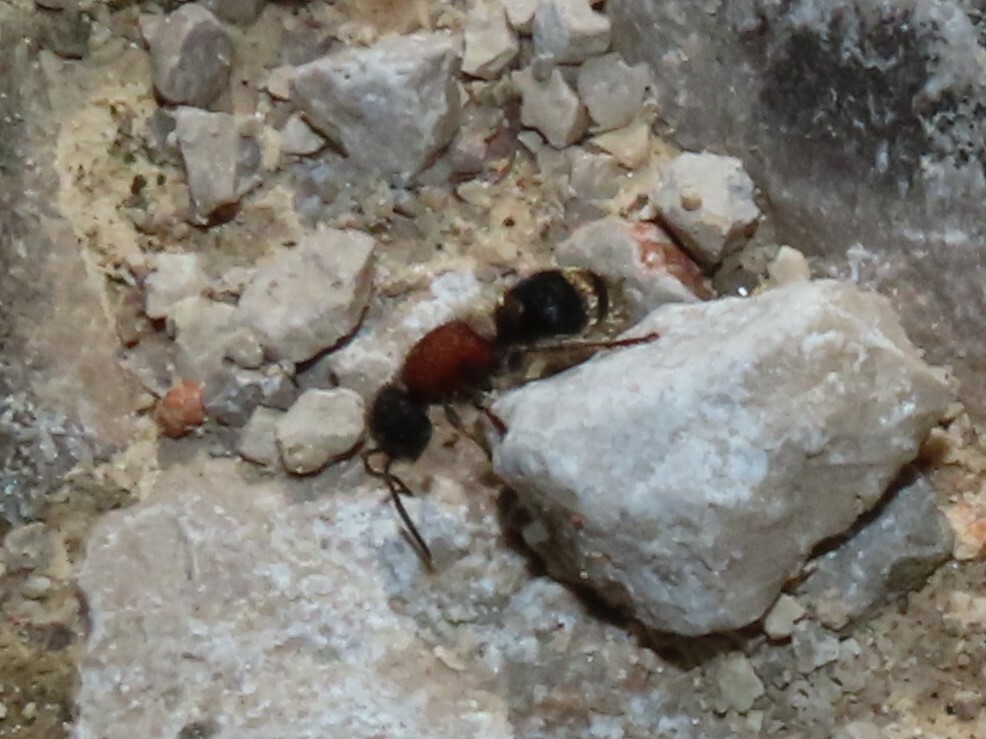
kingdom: Animalia
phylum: Arthropoda
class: Insecta
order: Hymenoptera
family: Mutillidae
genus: Tropidotilla
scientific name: Tropidotilla litoralis
